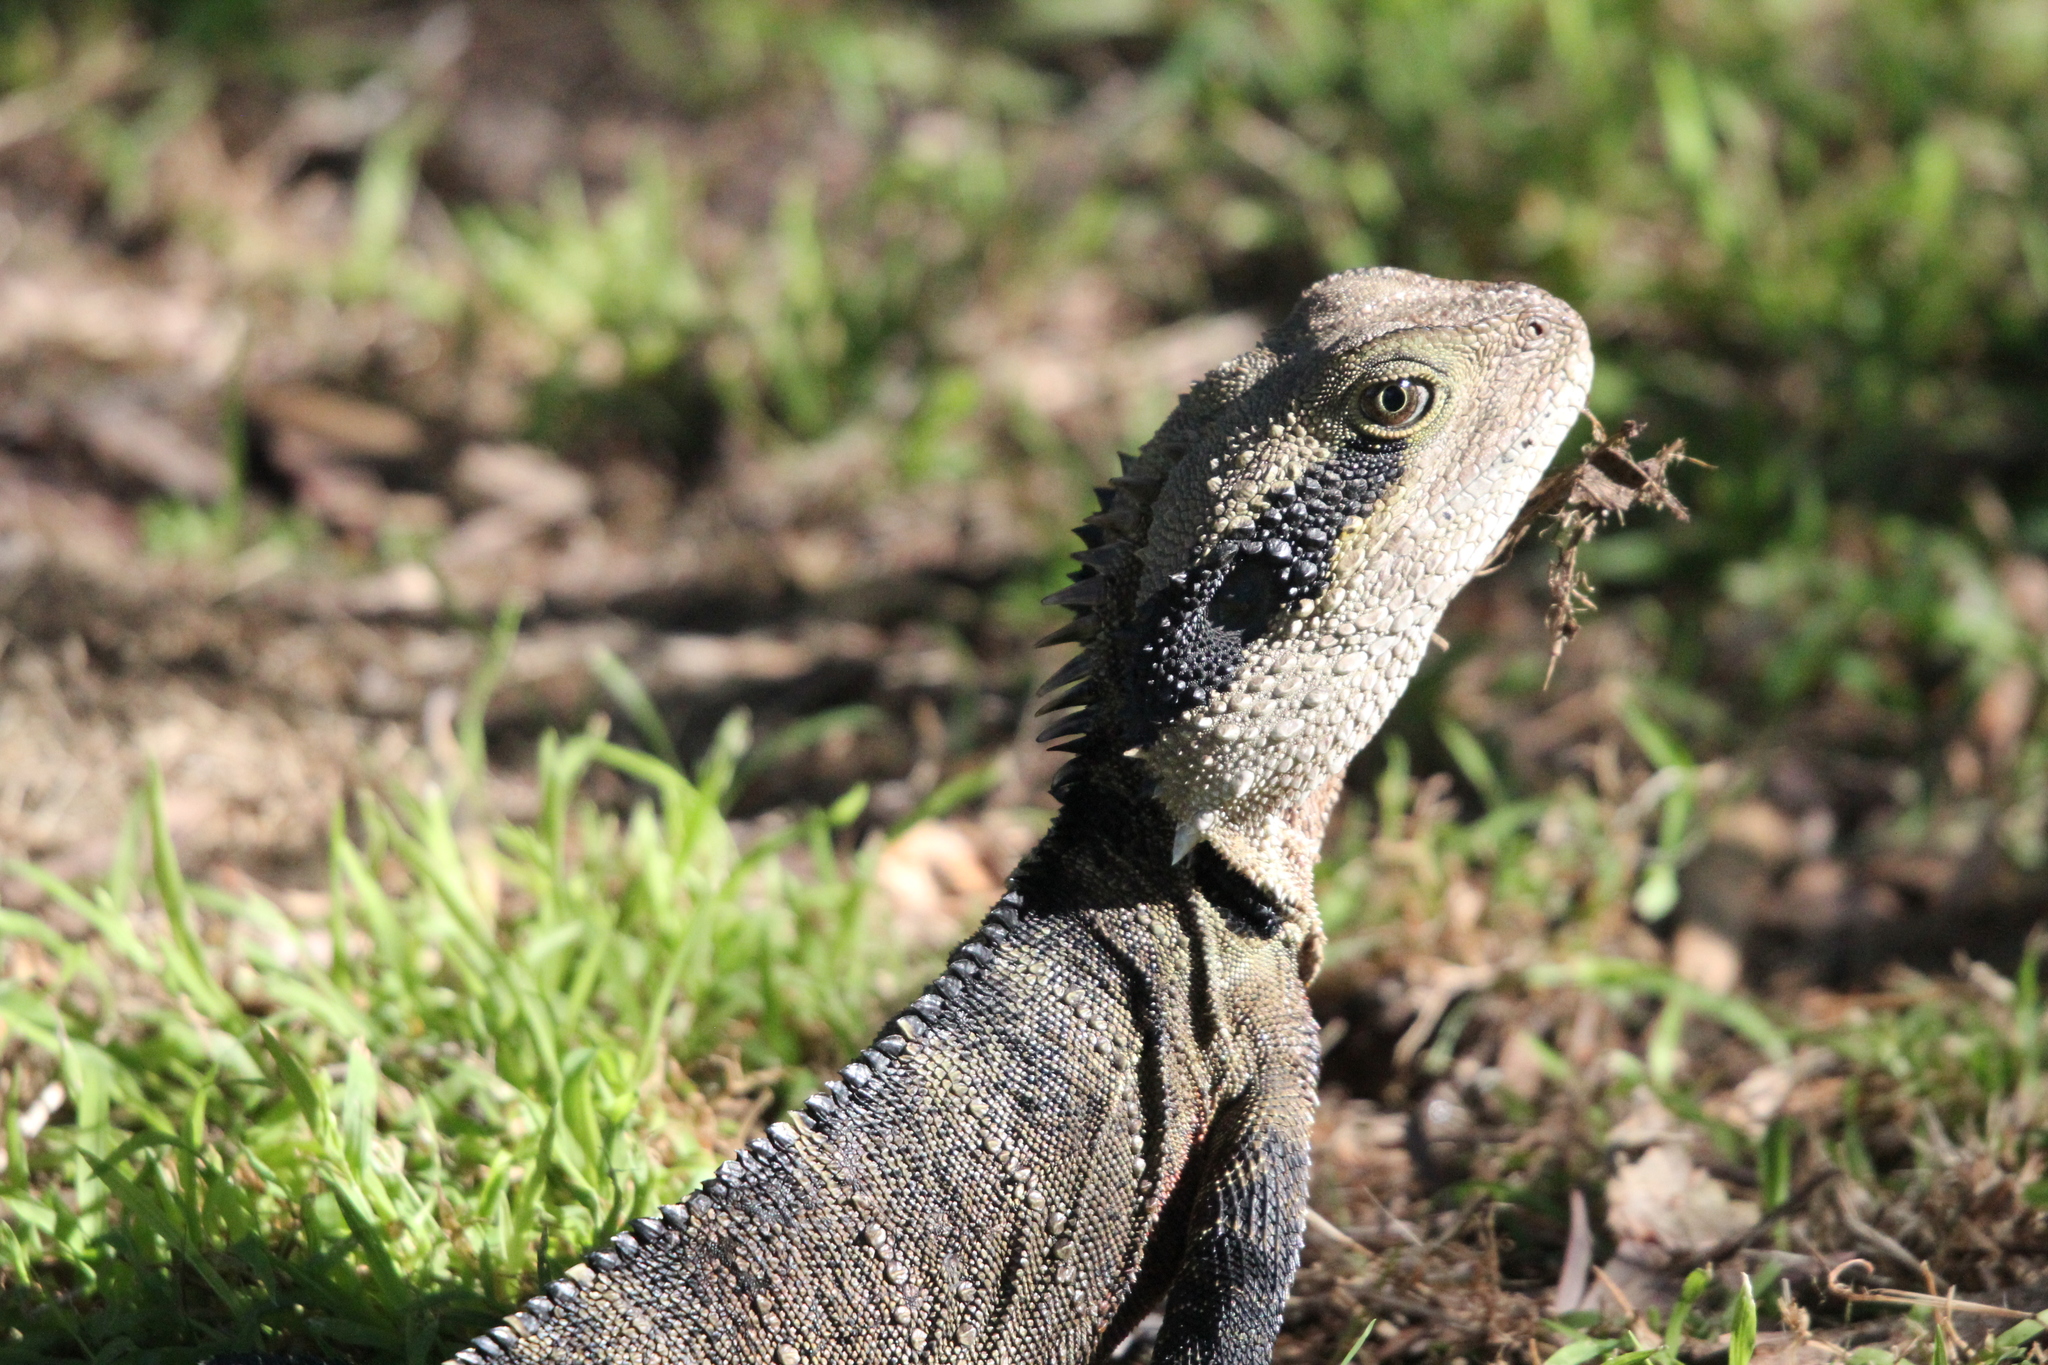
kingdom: Animalia
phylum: Chordata
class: Squamata
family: Agamidae
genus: Intellagama
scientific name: Intellagama lesueurii
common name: Eastern water dragon
